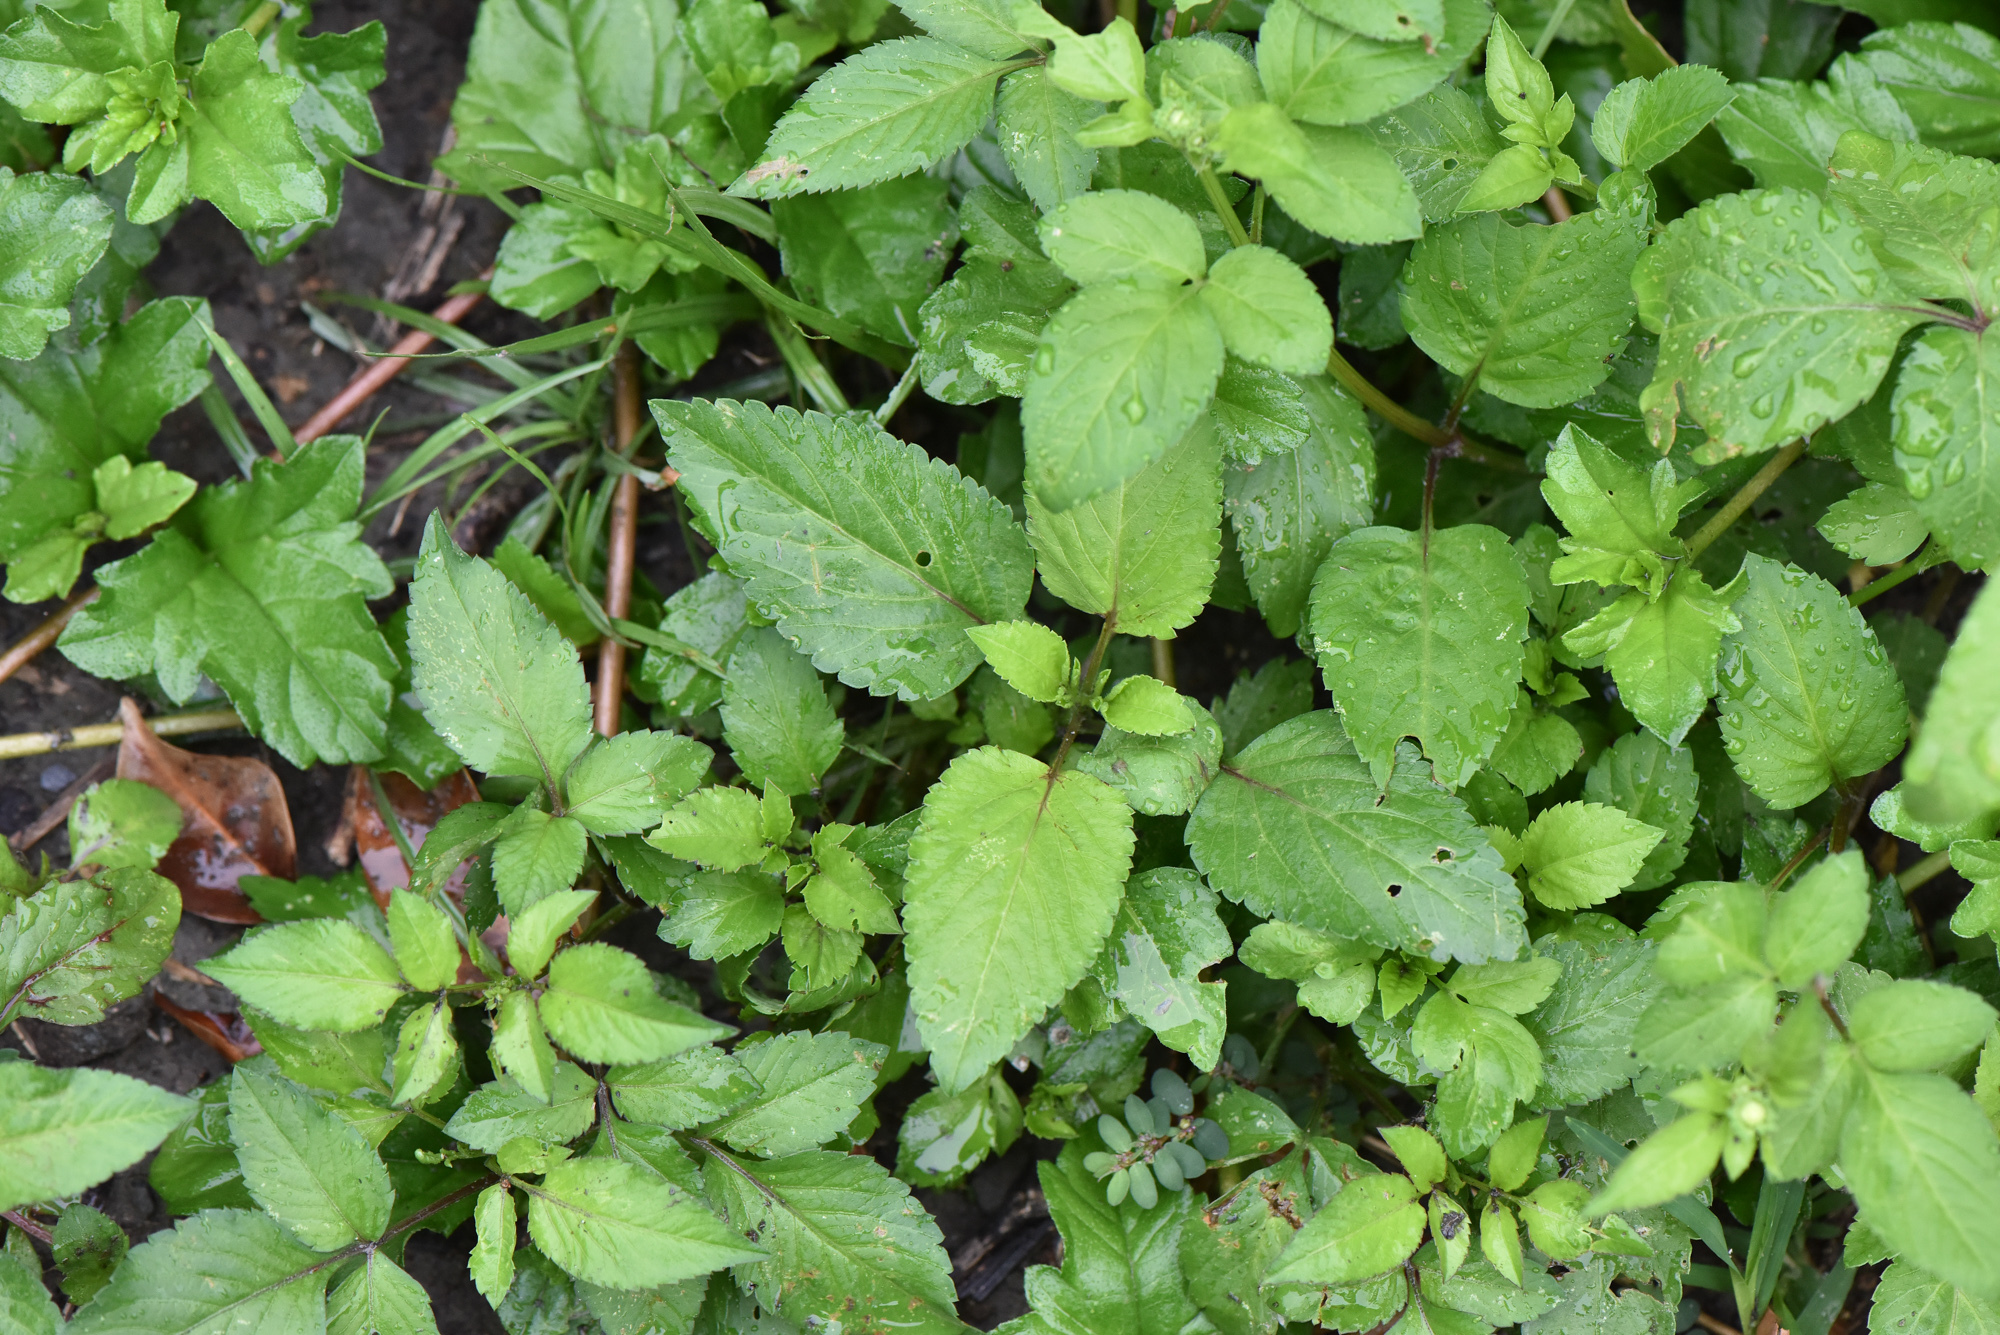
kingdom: Plantae
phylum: Tracheophyta
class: Magnoliopsida
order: Asterales
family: Asteraceae
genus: Bidens
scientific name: Bidens alba
